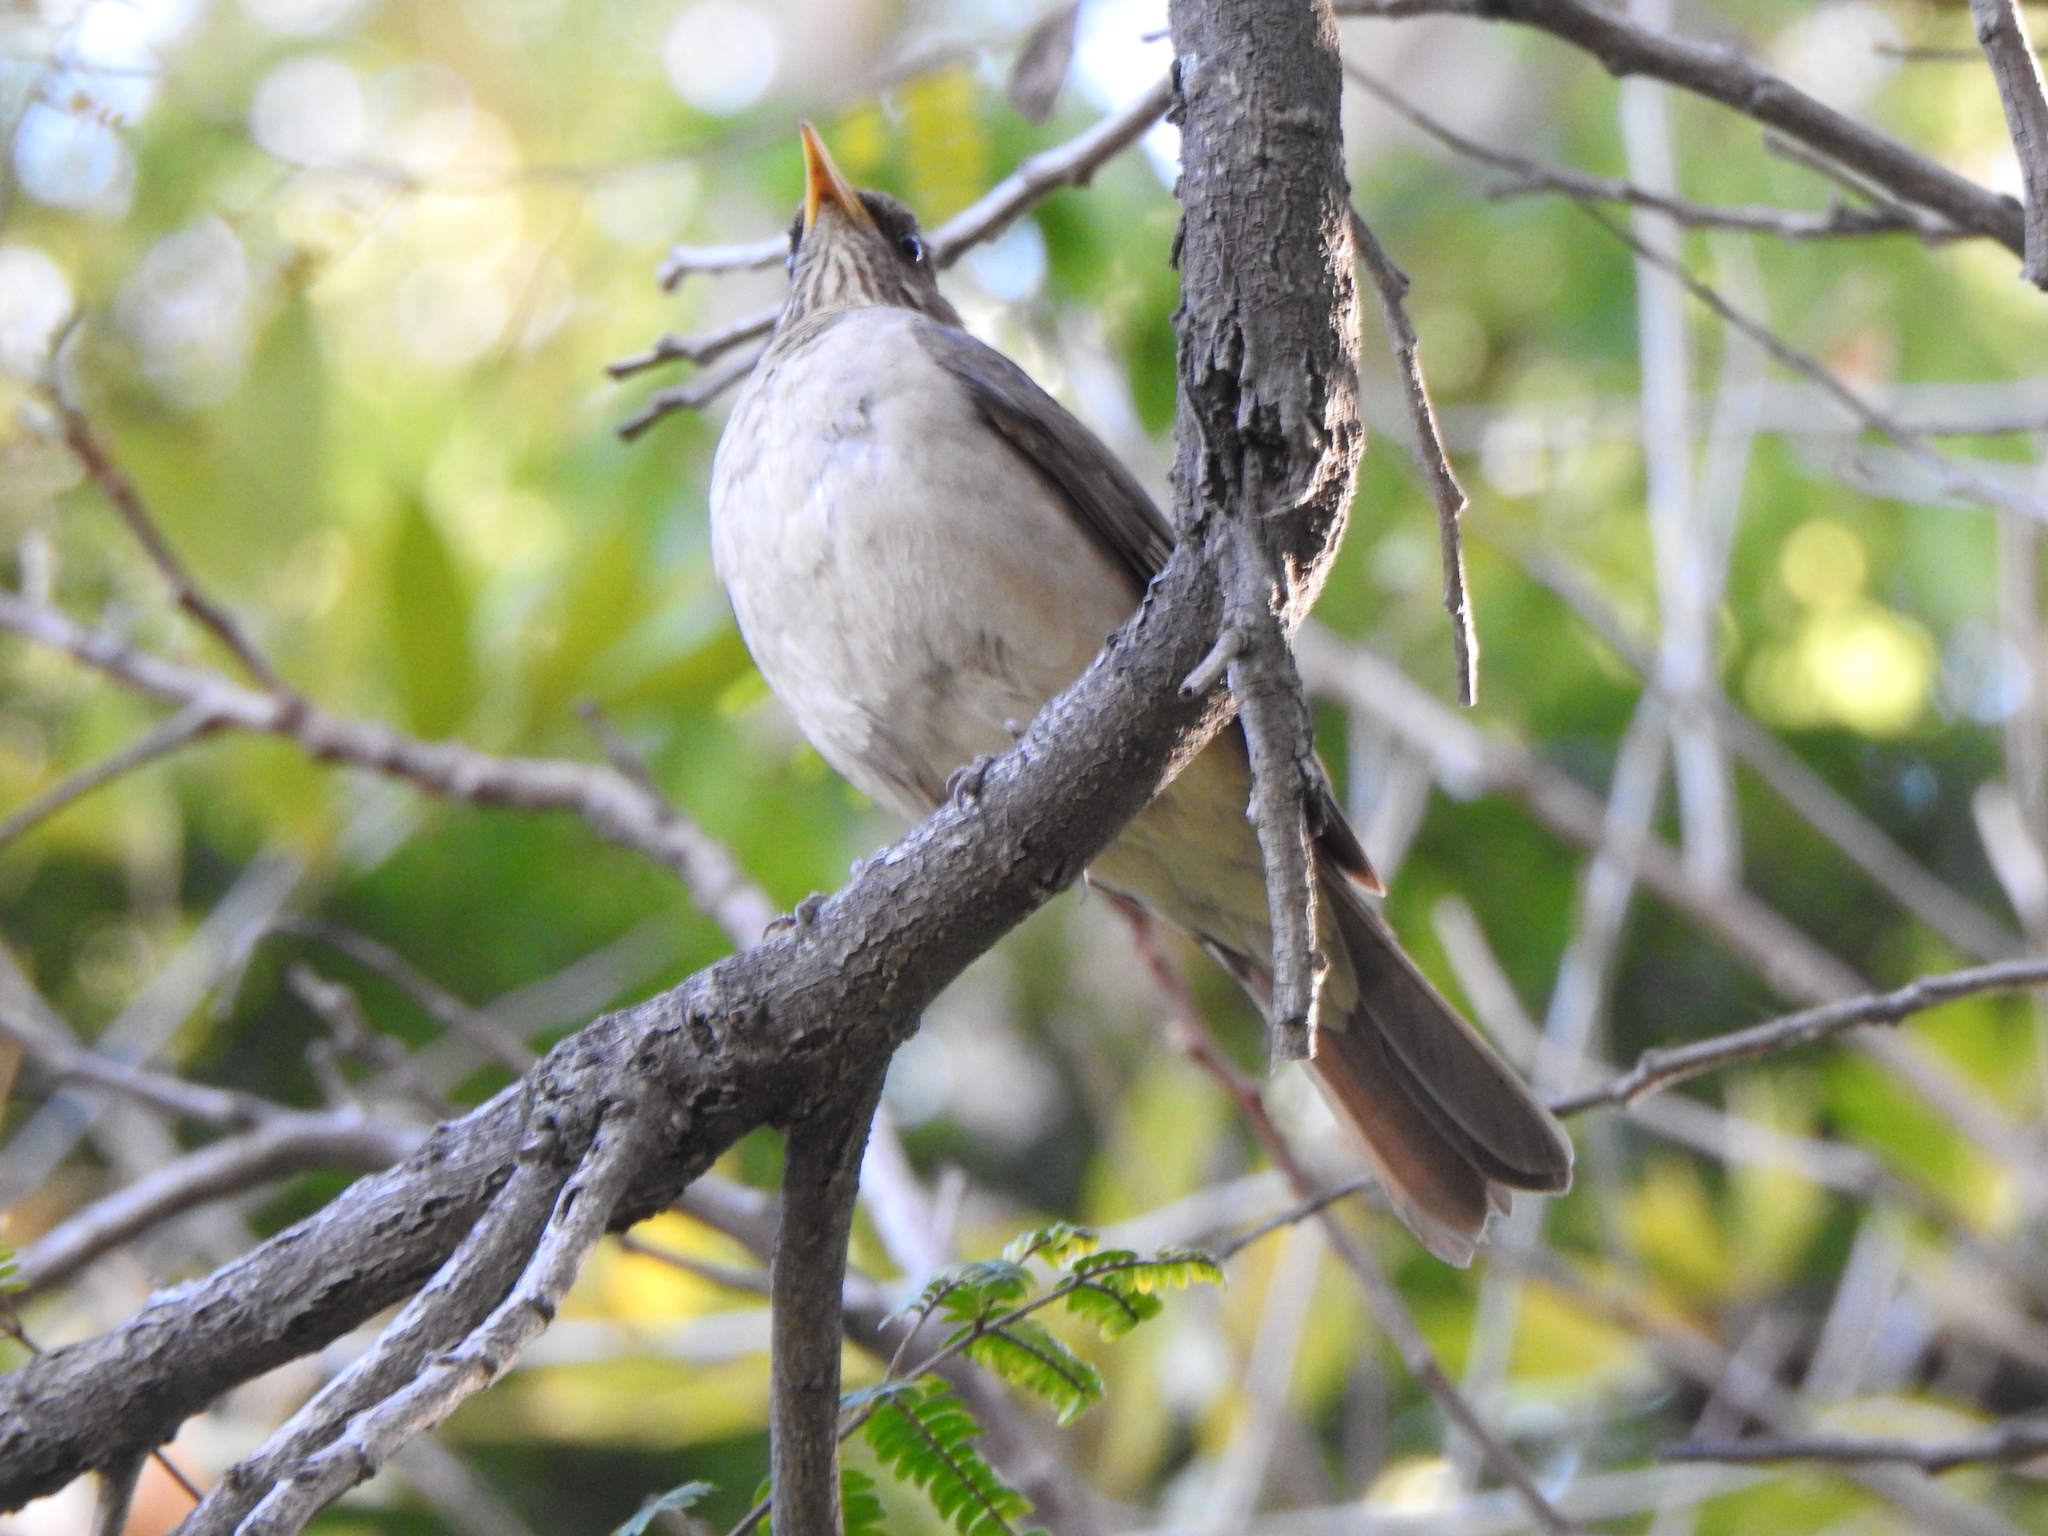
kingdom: Animalia
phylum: Chordata
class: Aves
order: Passeriformes
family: Turdidae
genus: Turdus
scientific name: Turdus amaurochalinus
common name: Creamy-bellied thrush
